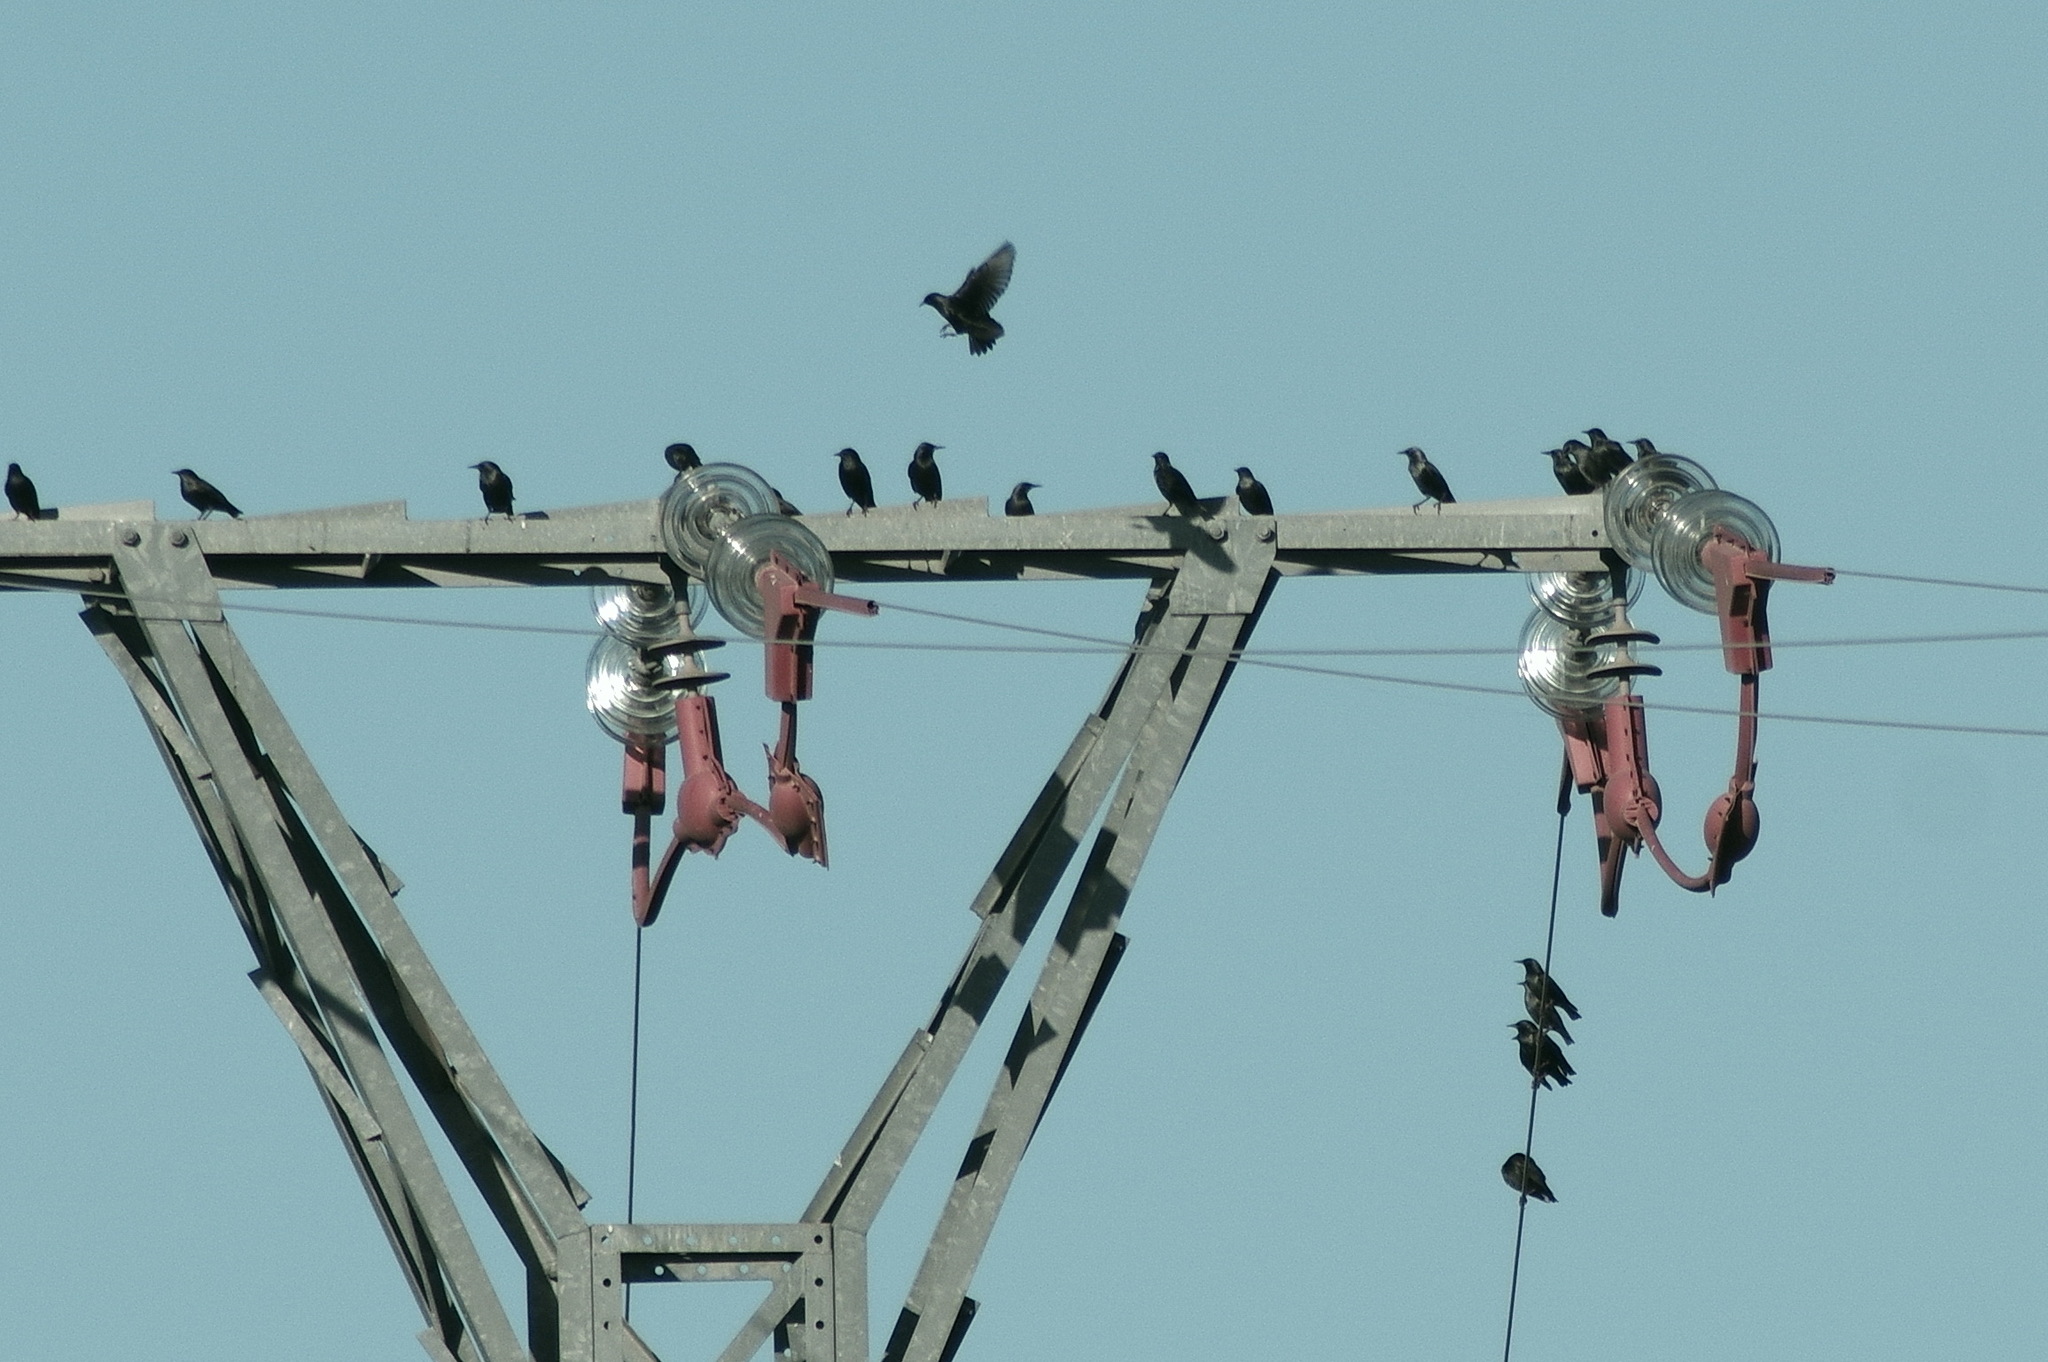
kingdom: Animalia
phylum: Chordata
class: Aves
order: Passeriformes
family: Sturnidae
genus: Sturnus
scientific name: Sturnus unicolor
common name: Spotless starling
